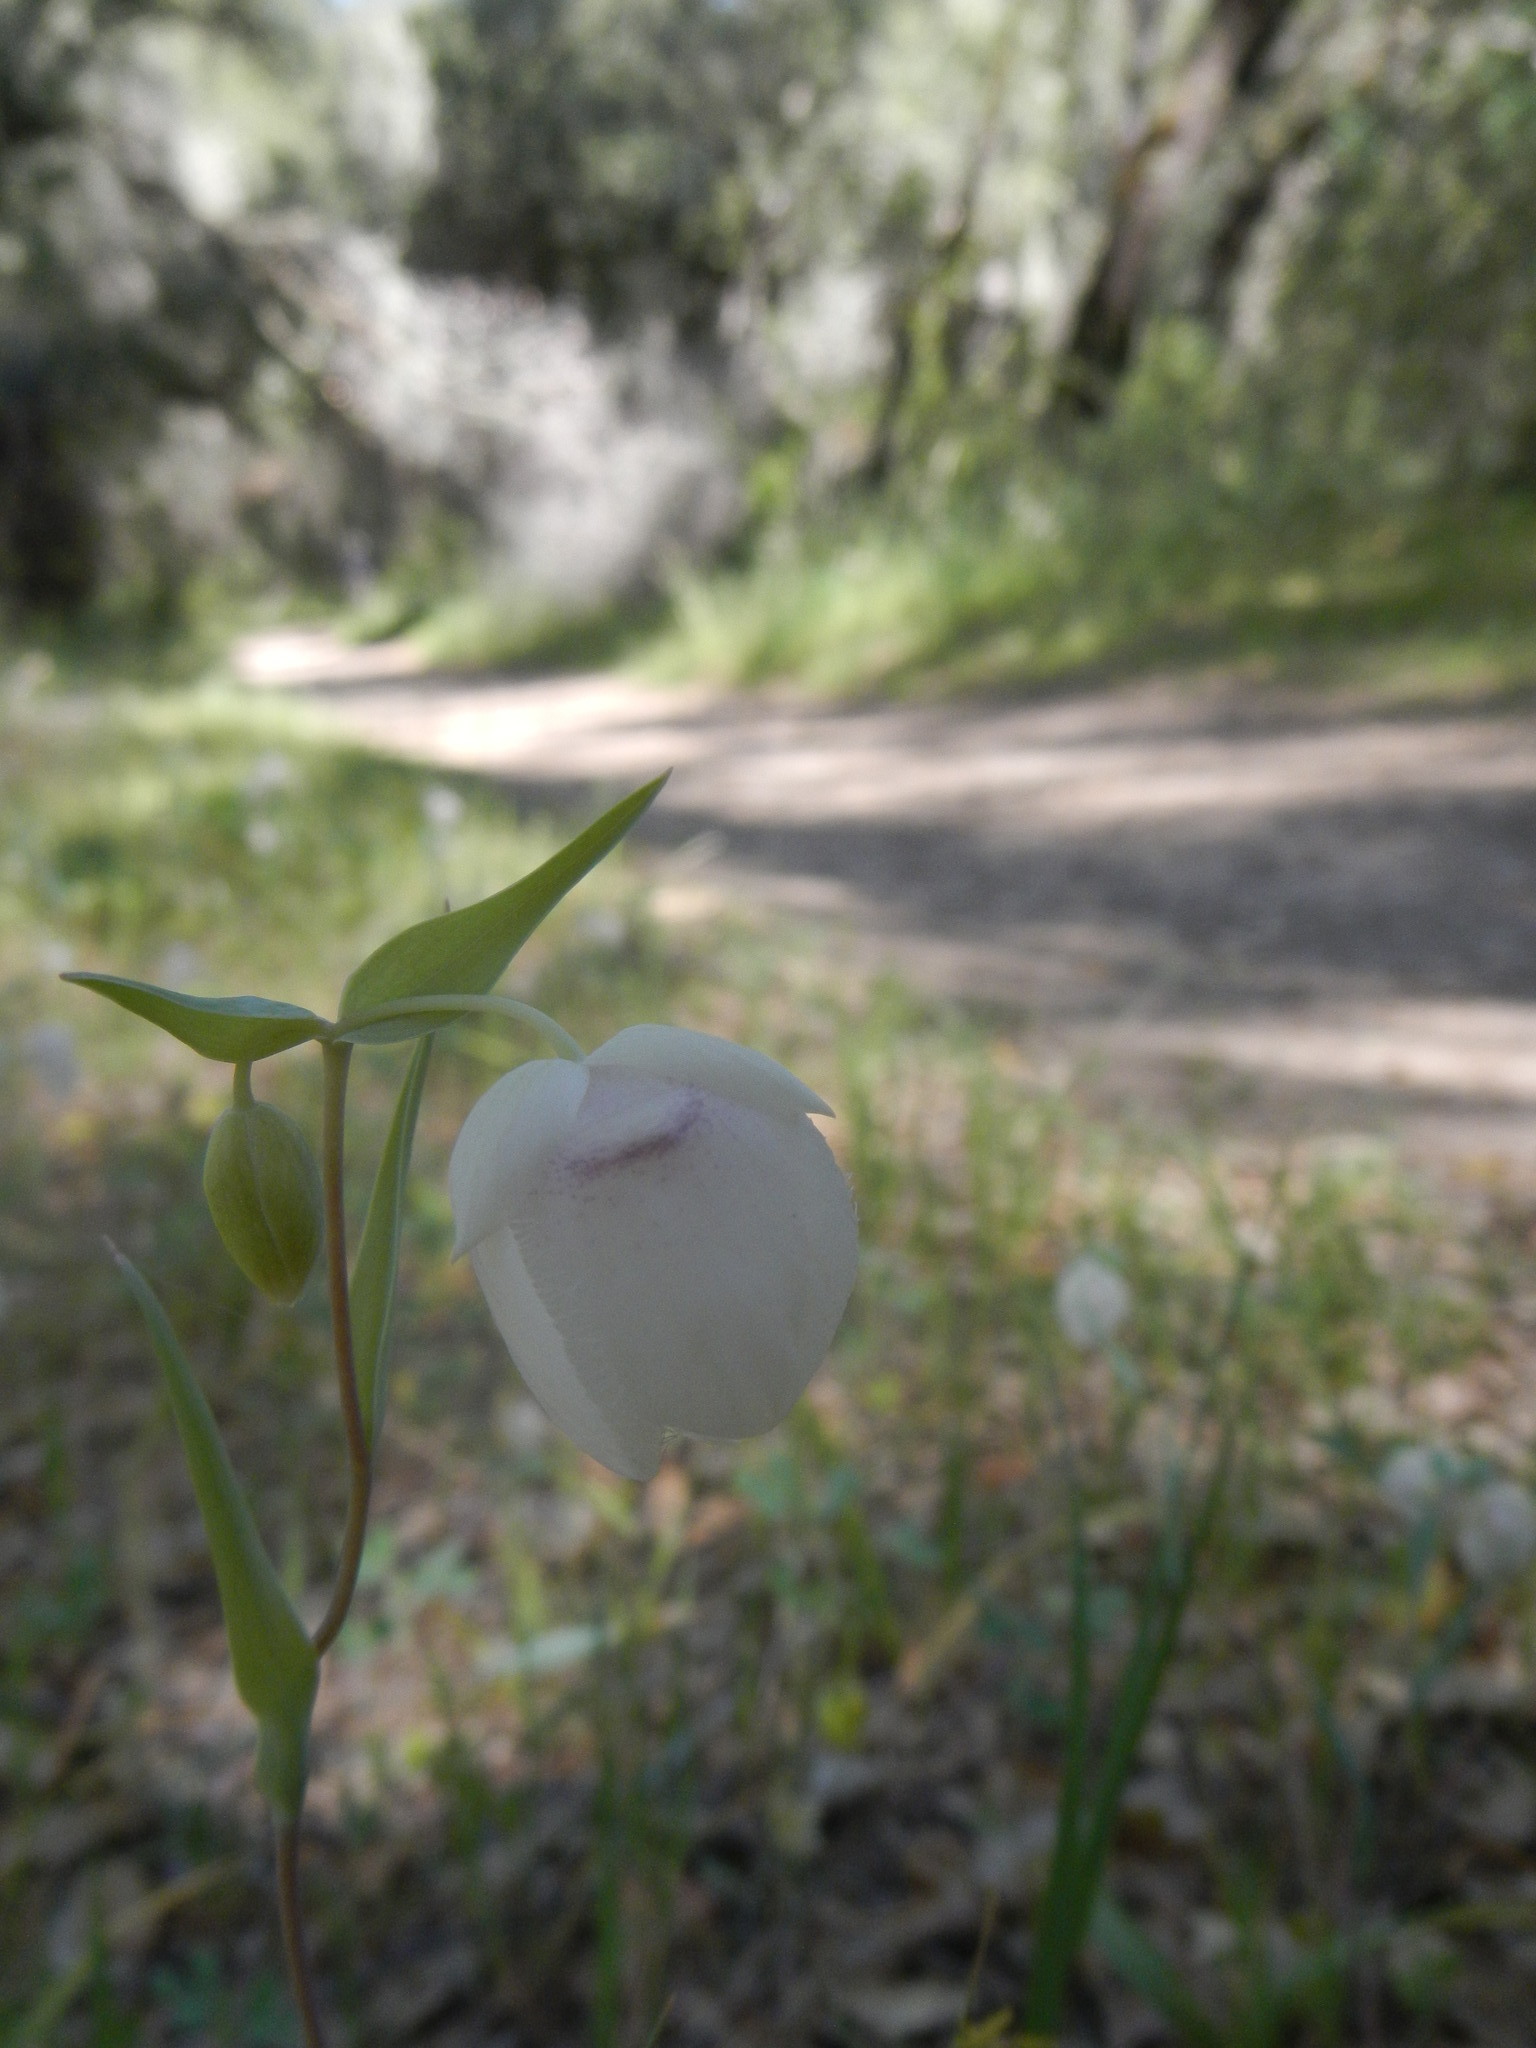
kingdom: Plantae
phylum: Tracheophyta
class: Liliopsida
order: Liliales
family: Liliaceae
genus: Calochortus
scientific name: Calochortus albus
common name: Fairy-lantern
